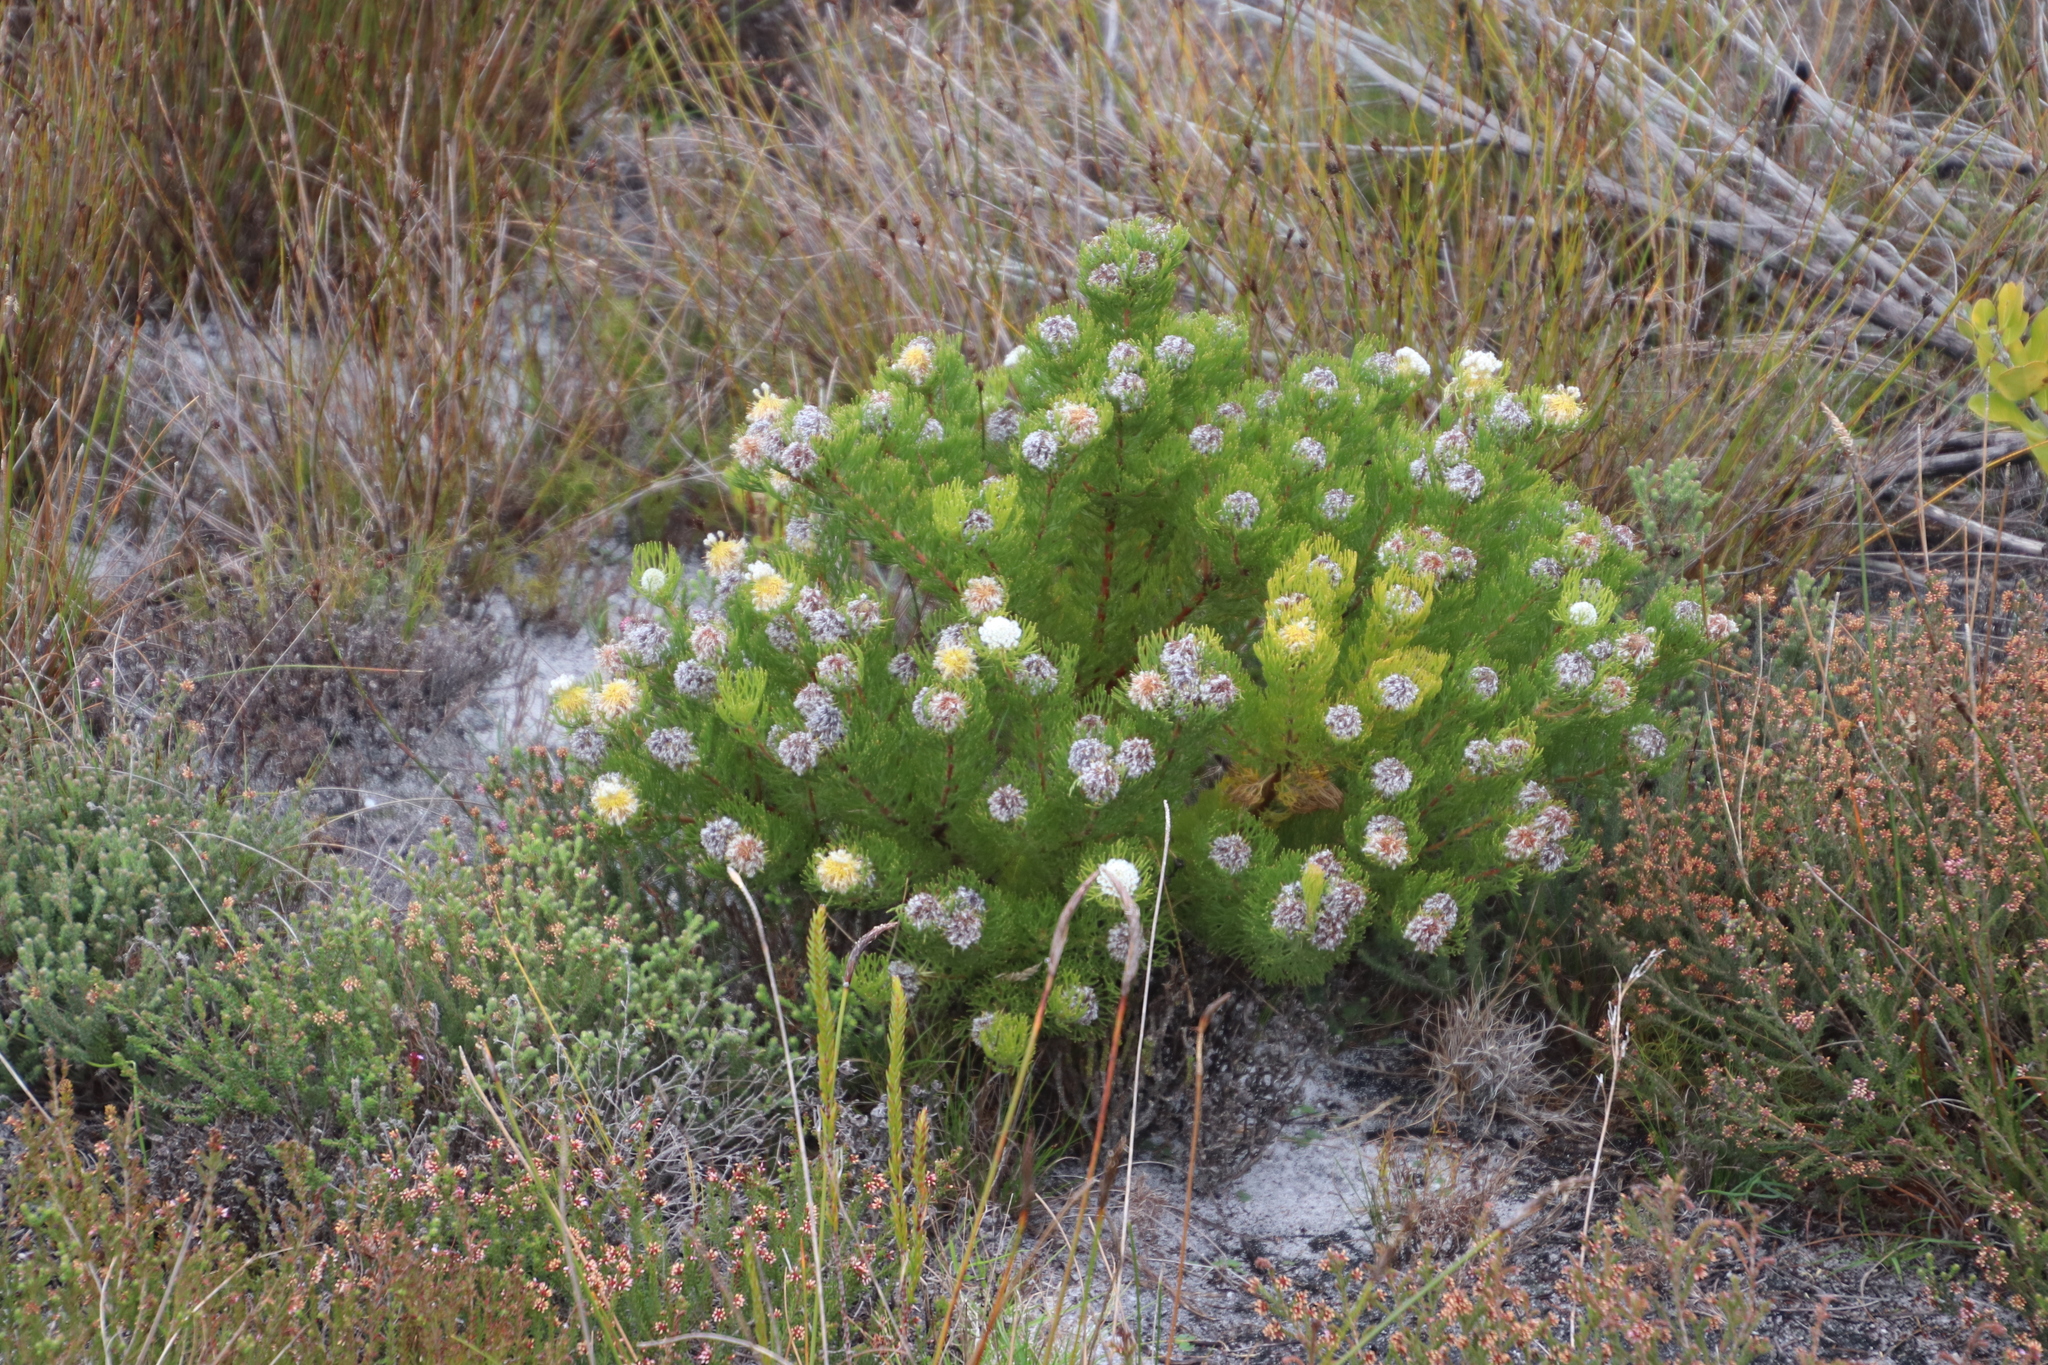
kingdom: Plantae
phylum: Tracheophyta
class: Magnoliopsida
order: Proteales
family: Proteaceae
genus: Serruria
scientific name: Serruria villosa
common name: Golden spiderhead
